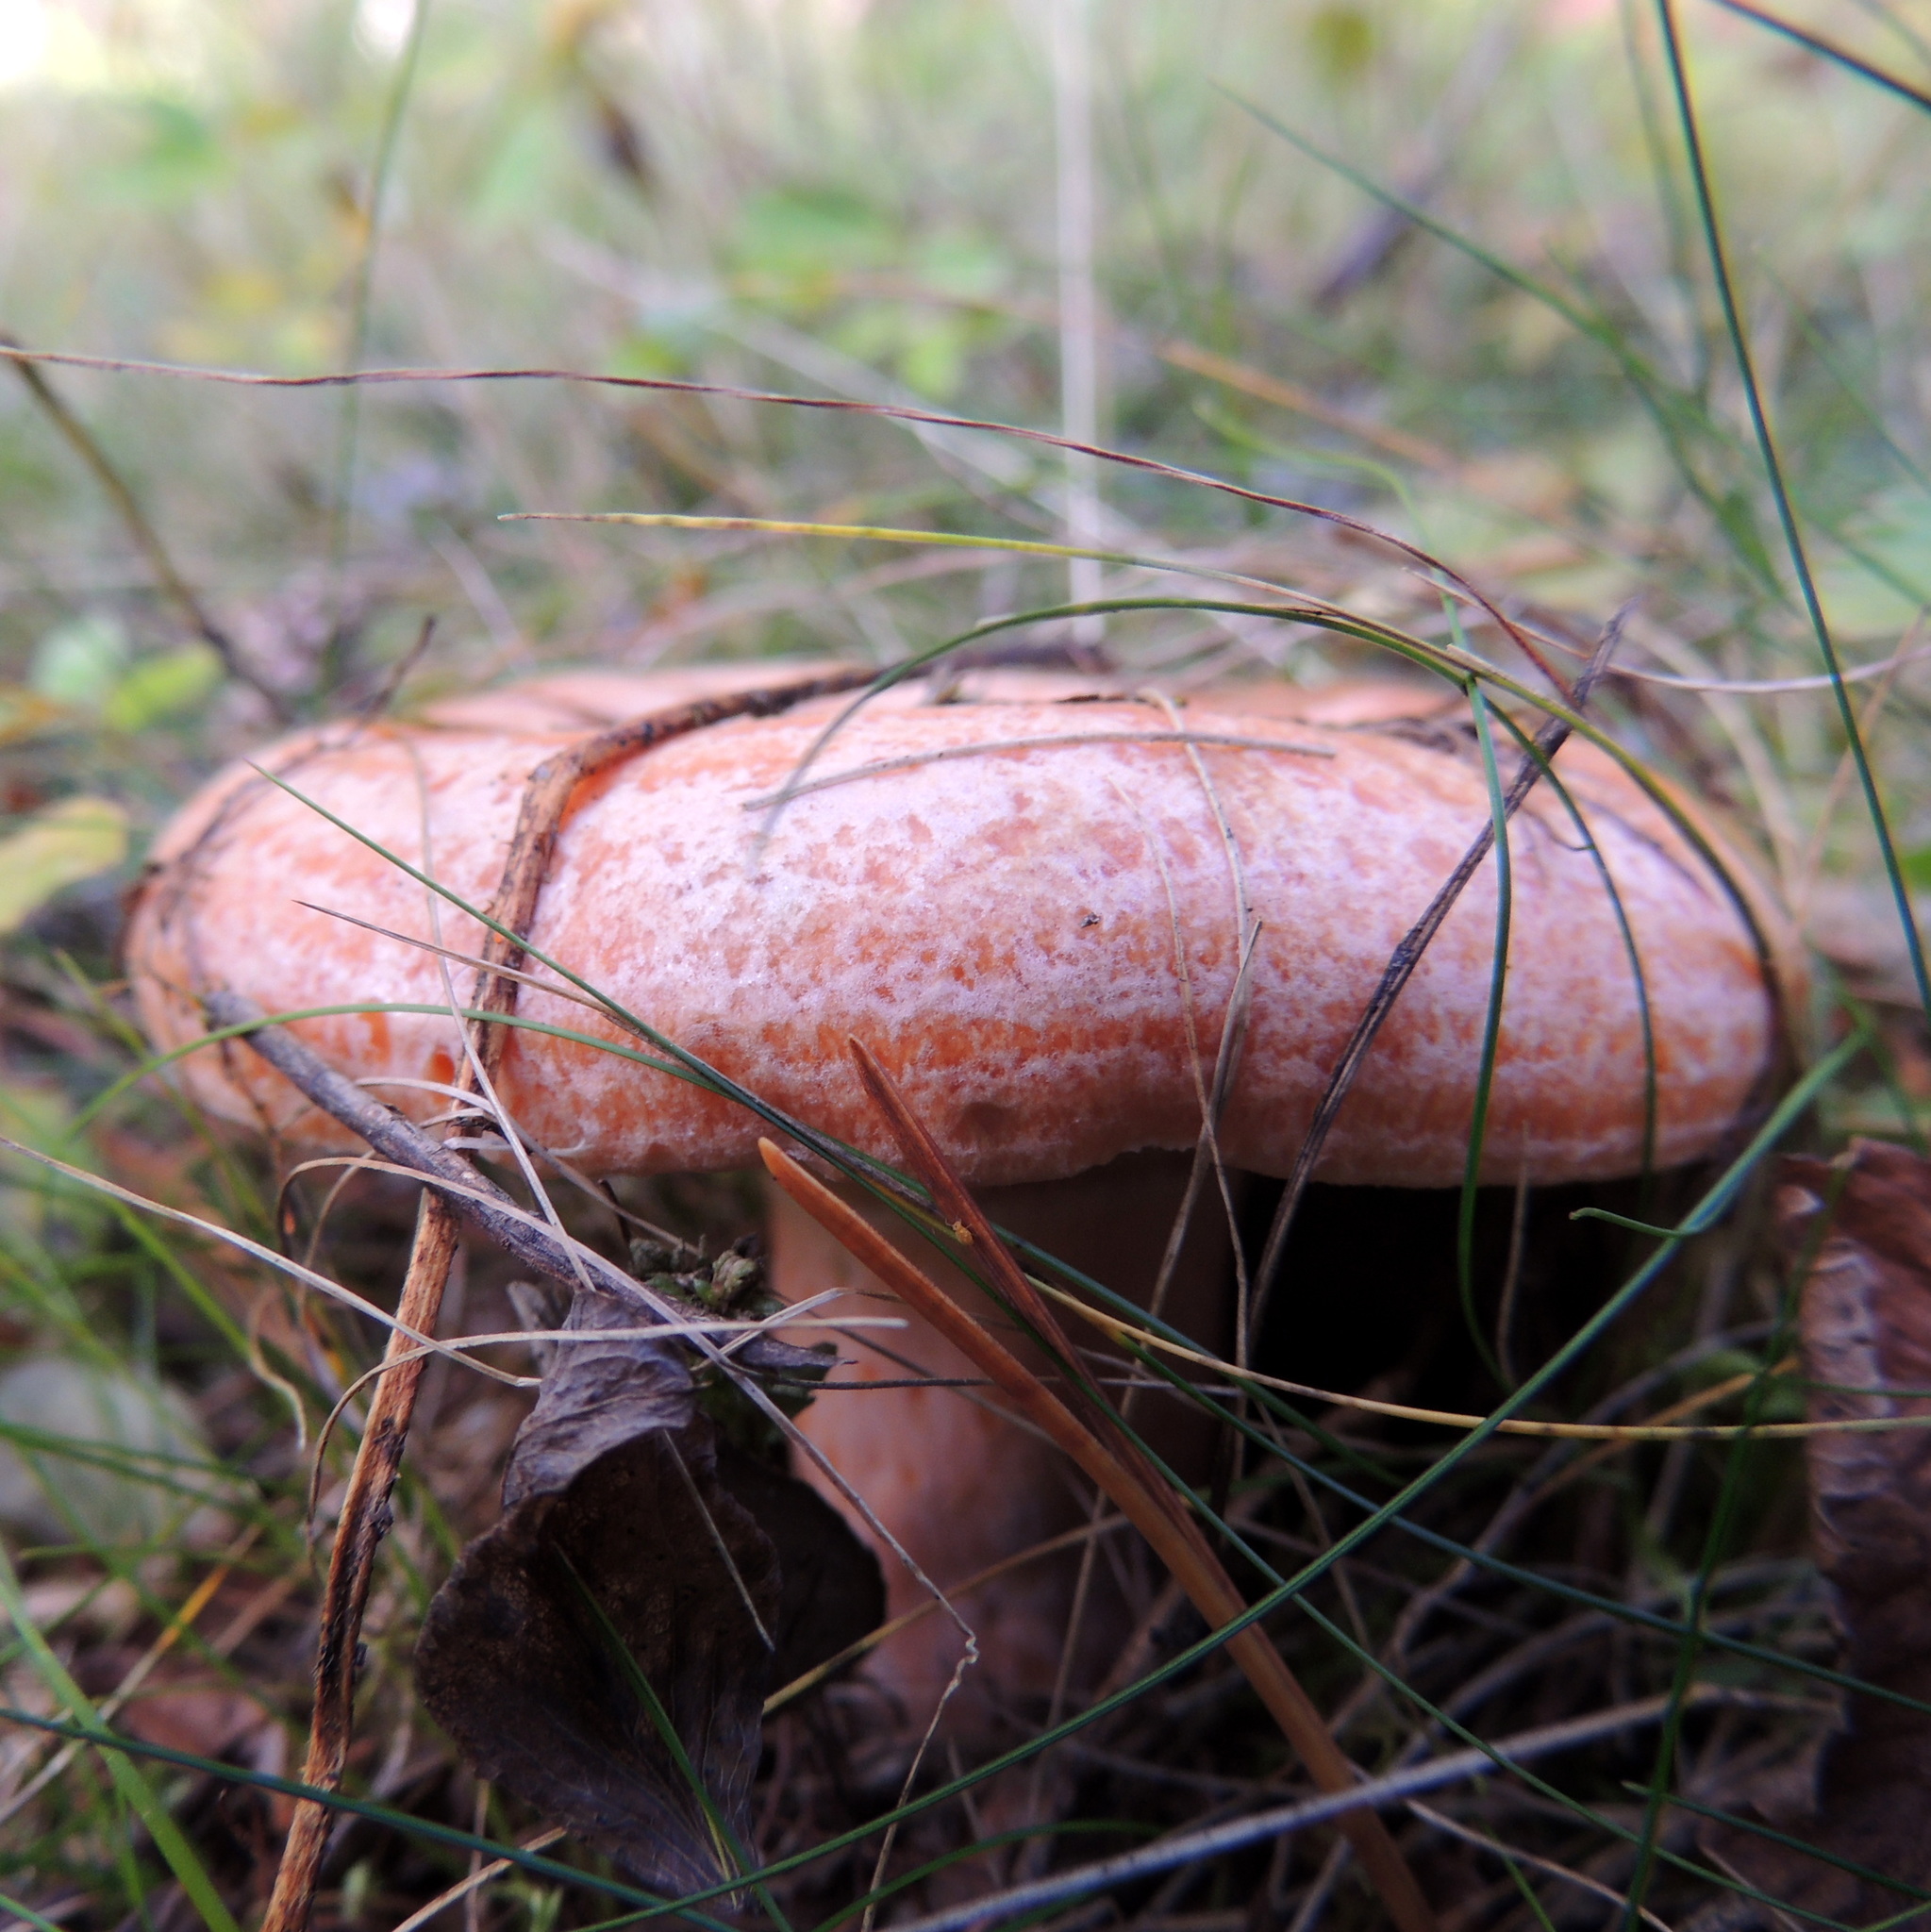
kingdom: Fungi
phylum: Basidiomycota
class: Agaricomycetes
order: Russulales
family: Russulaceae
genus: Lactarius
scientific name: Lactarius deliciosus
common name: Saffron milk-cap
